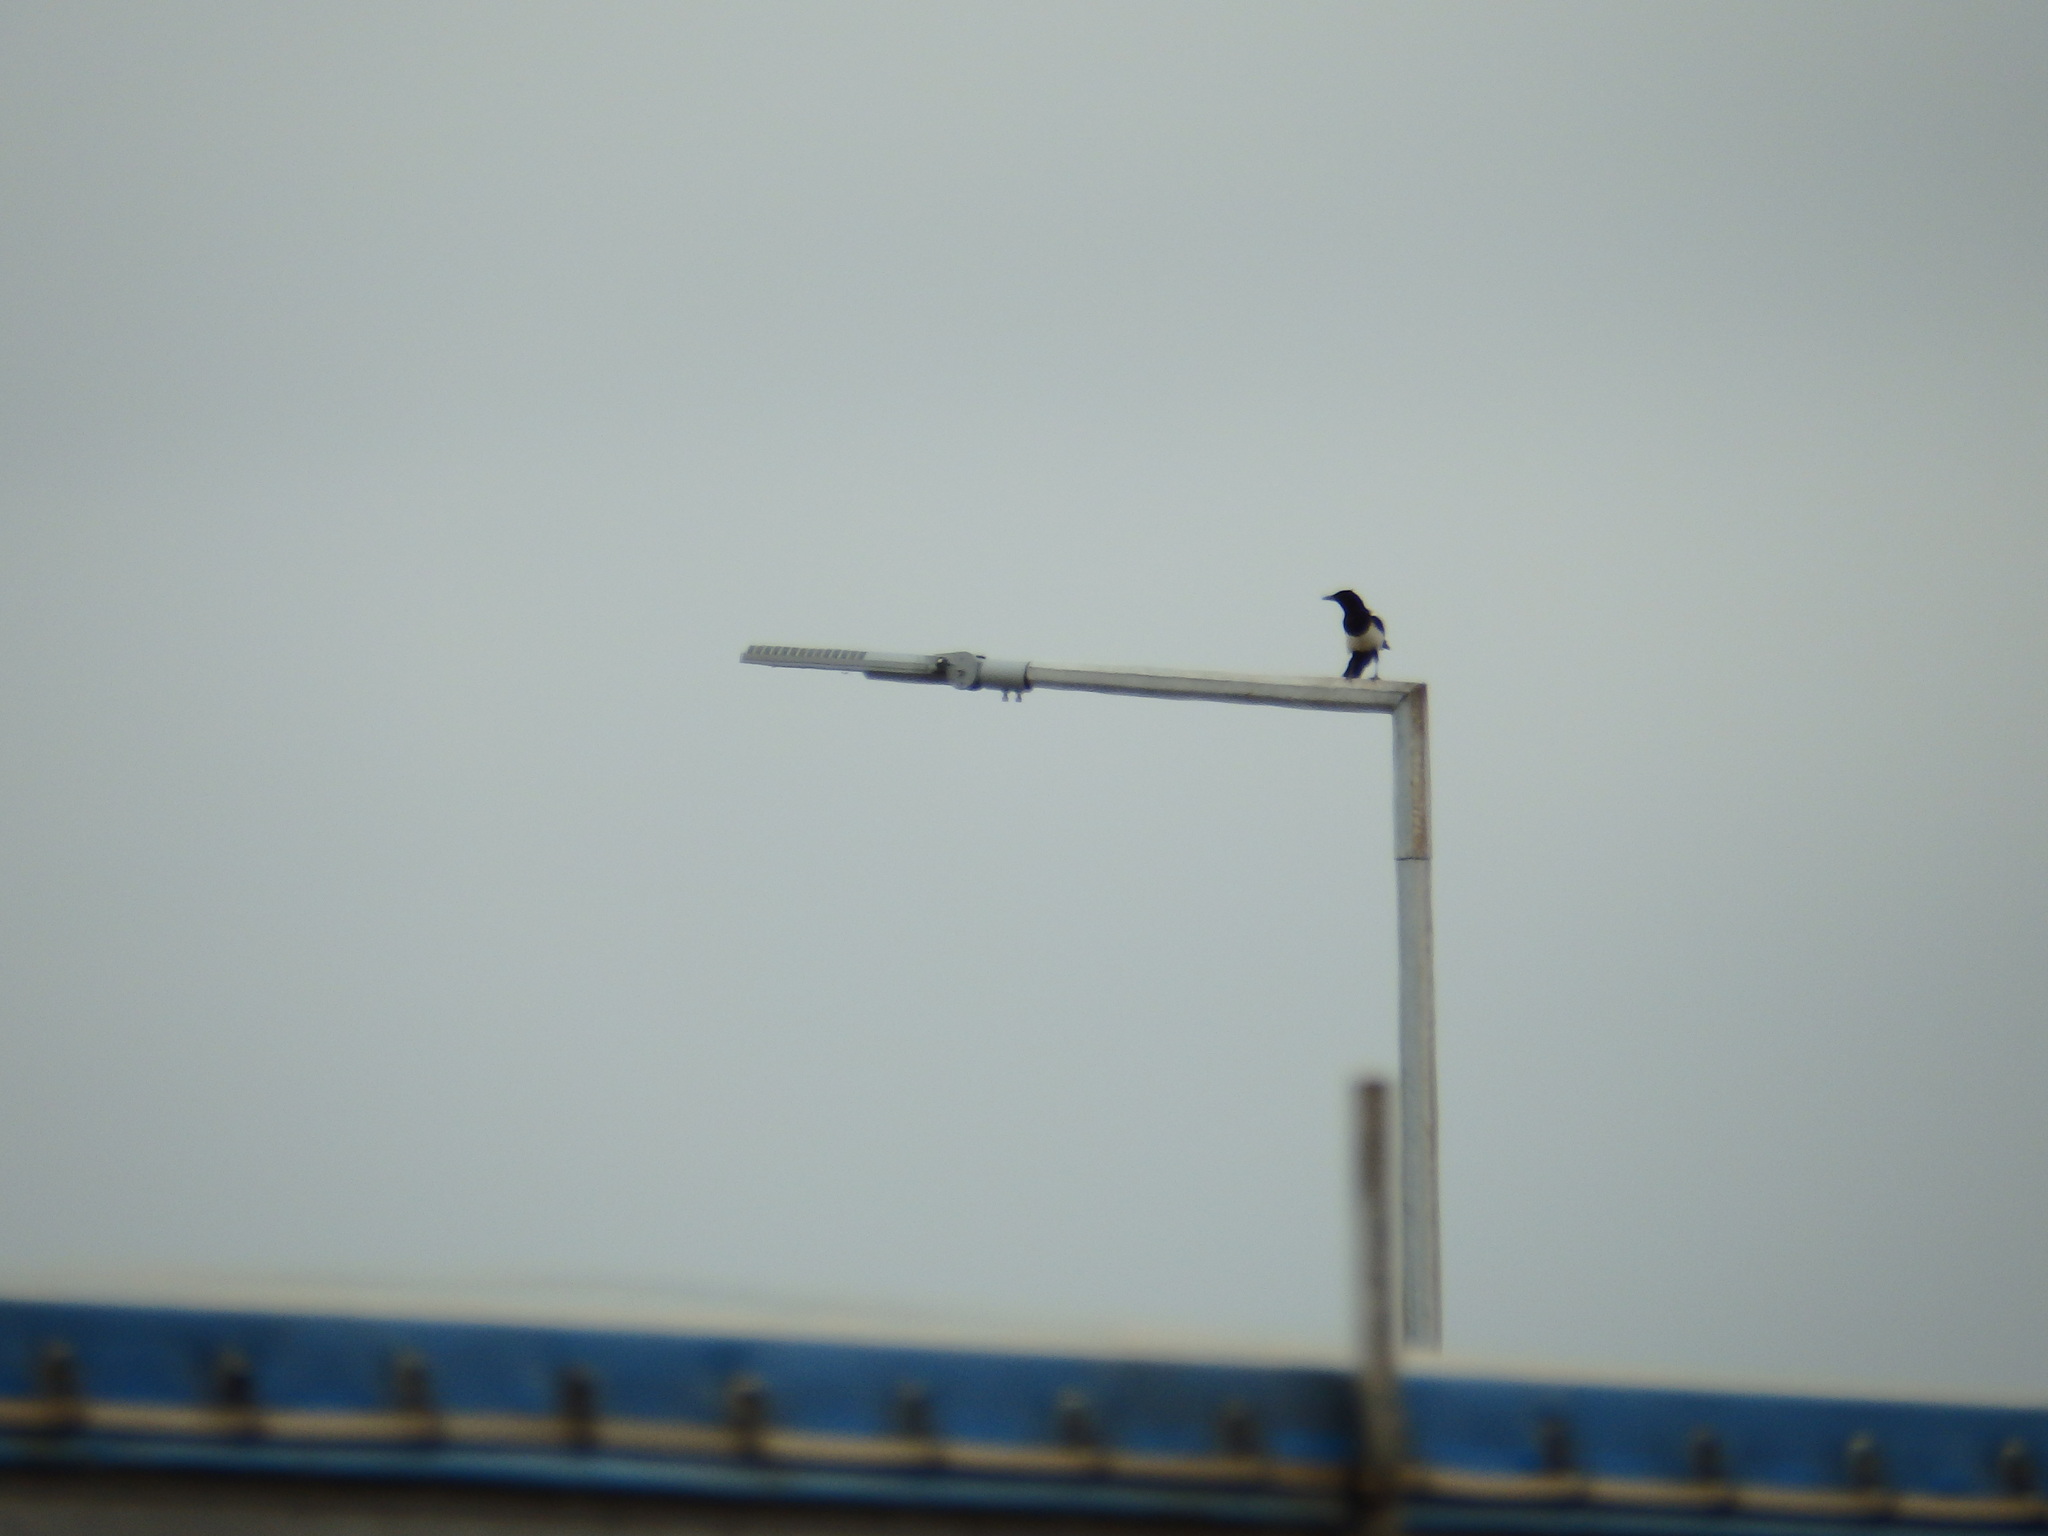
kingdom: Animalia
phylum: Chordata
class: Aves
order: Passeriformes
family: Corvidae
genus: Pica
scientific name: Pica pica
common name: Eurasian magpie
